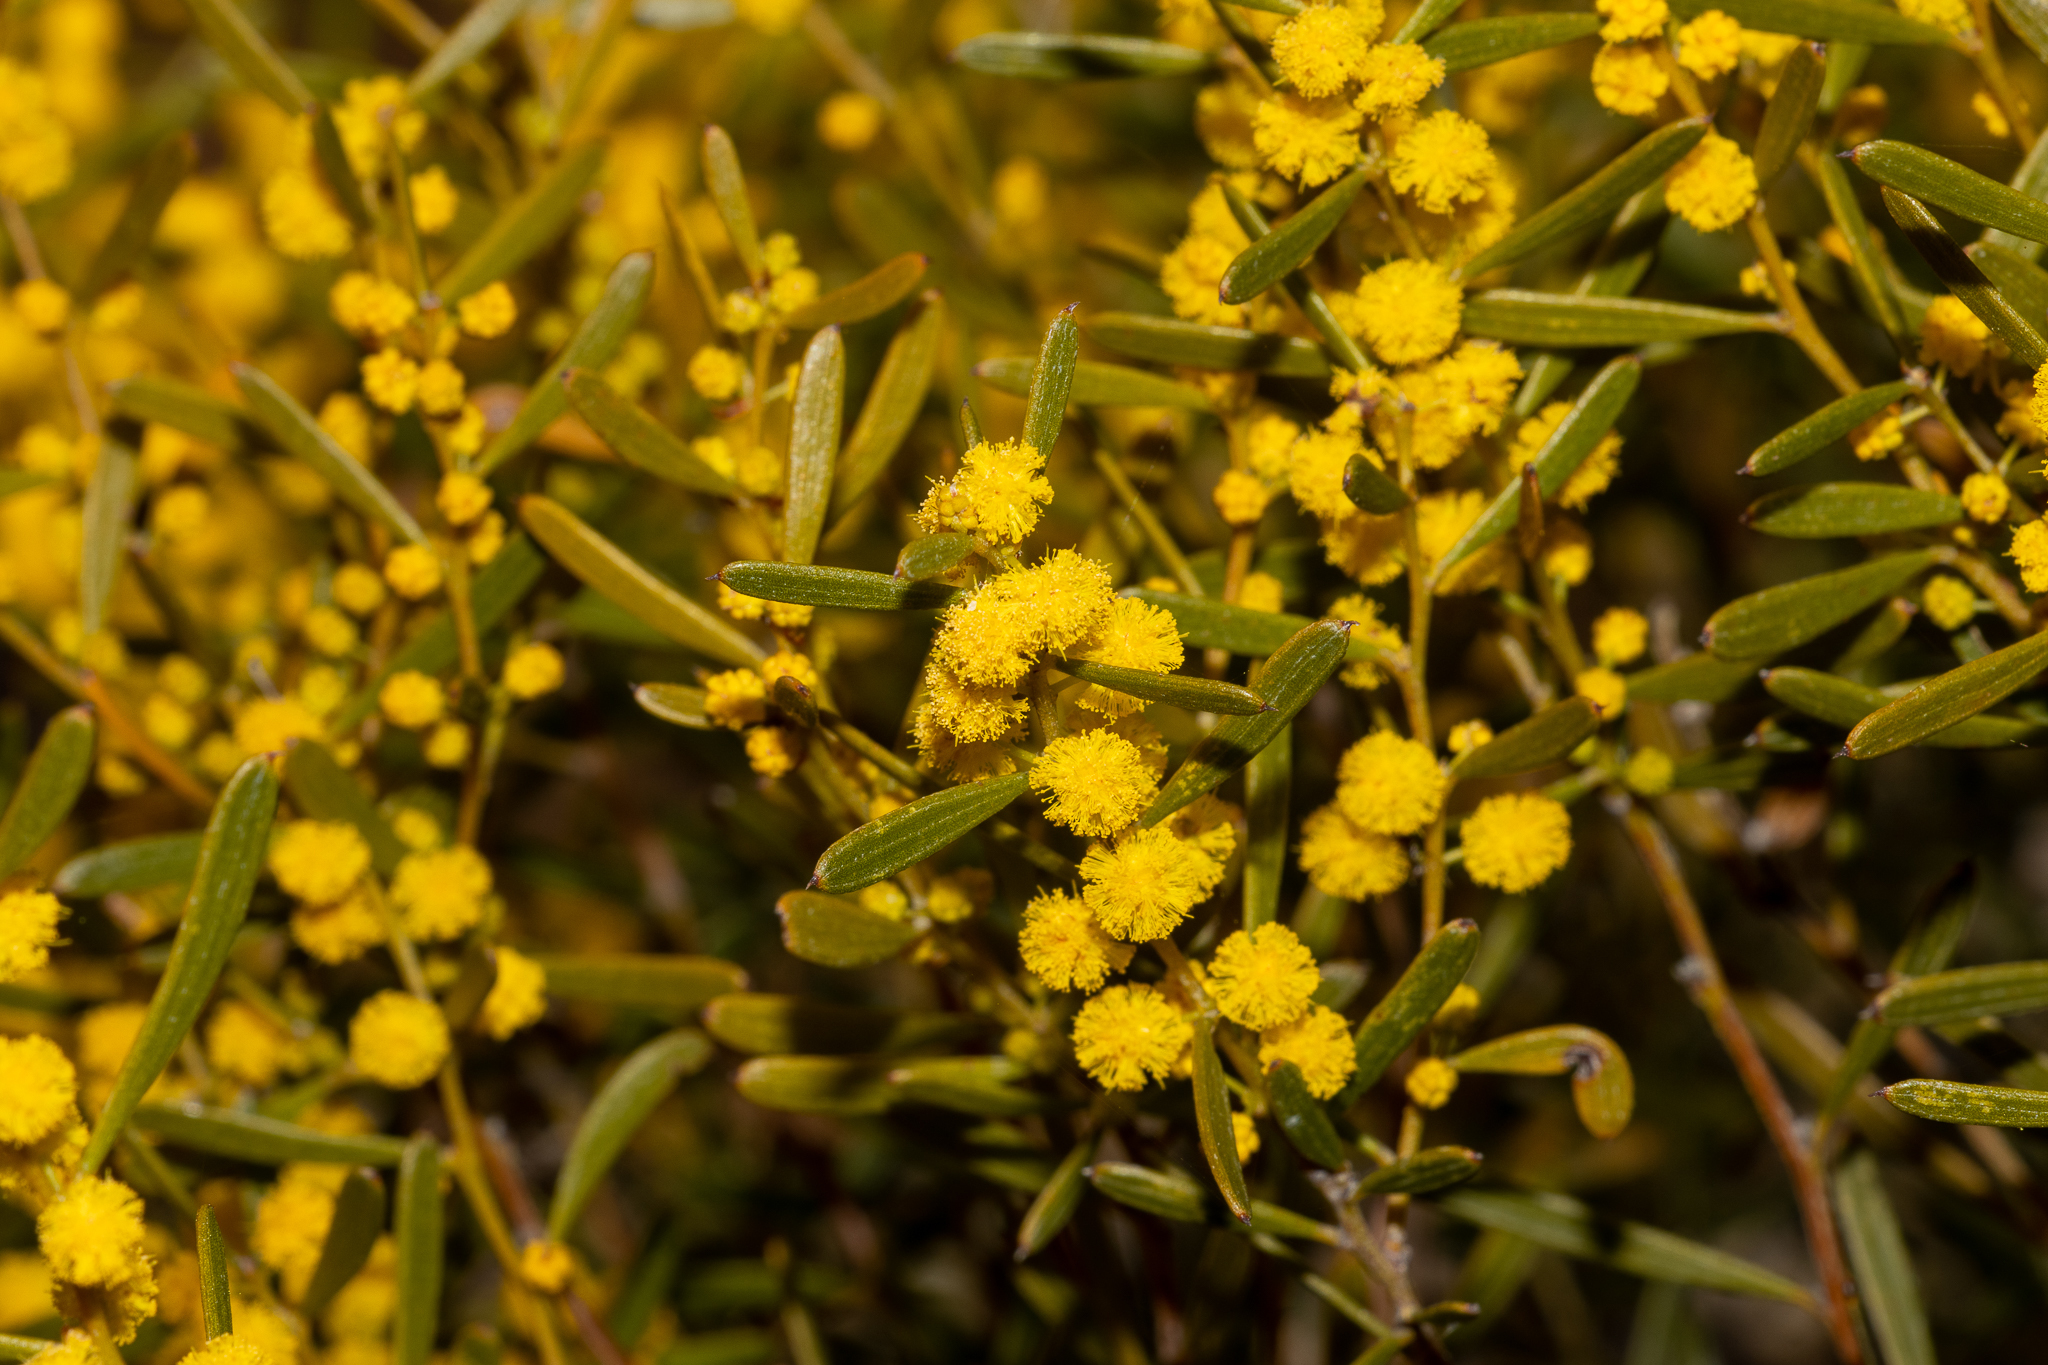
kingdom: Plantae
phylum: Tracheophyta
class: Magnoliopsida
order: Fabales
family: Fabaceae
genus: Acacia
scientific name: Acacia sclerophylla
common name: Hard-leaf wattle
